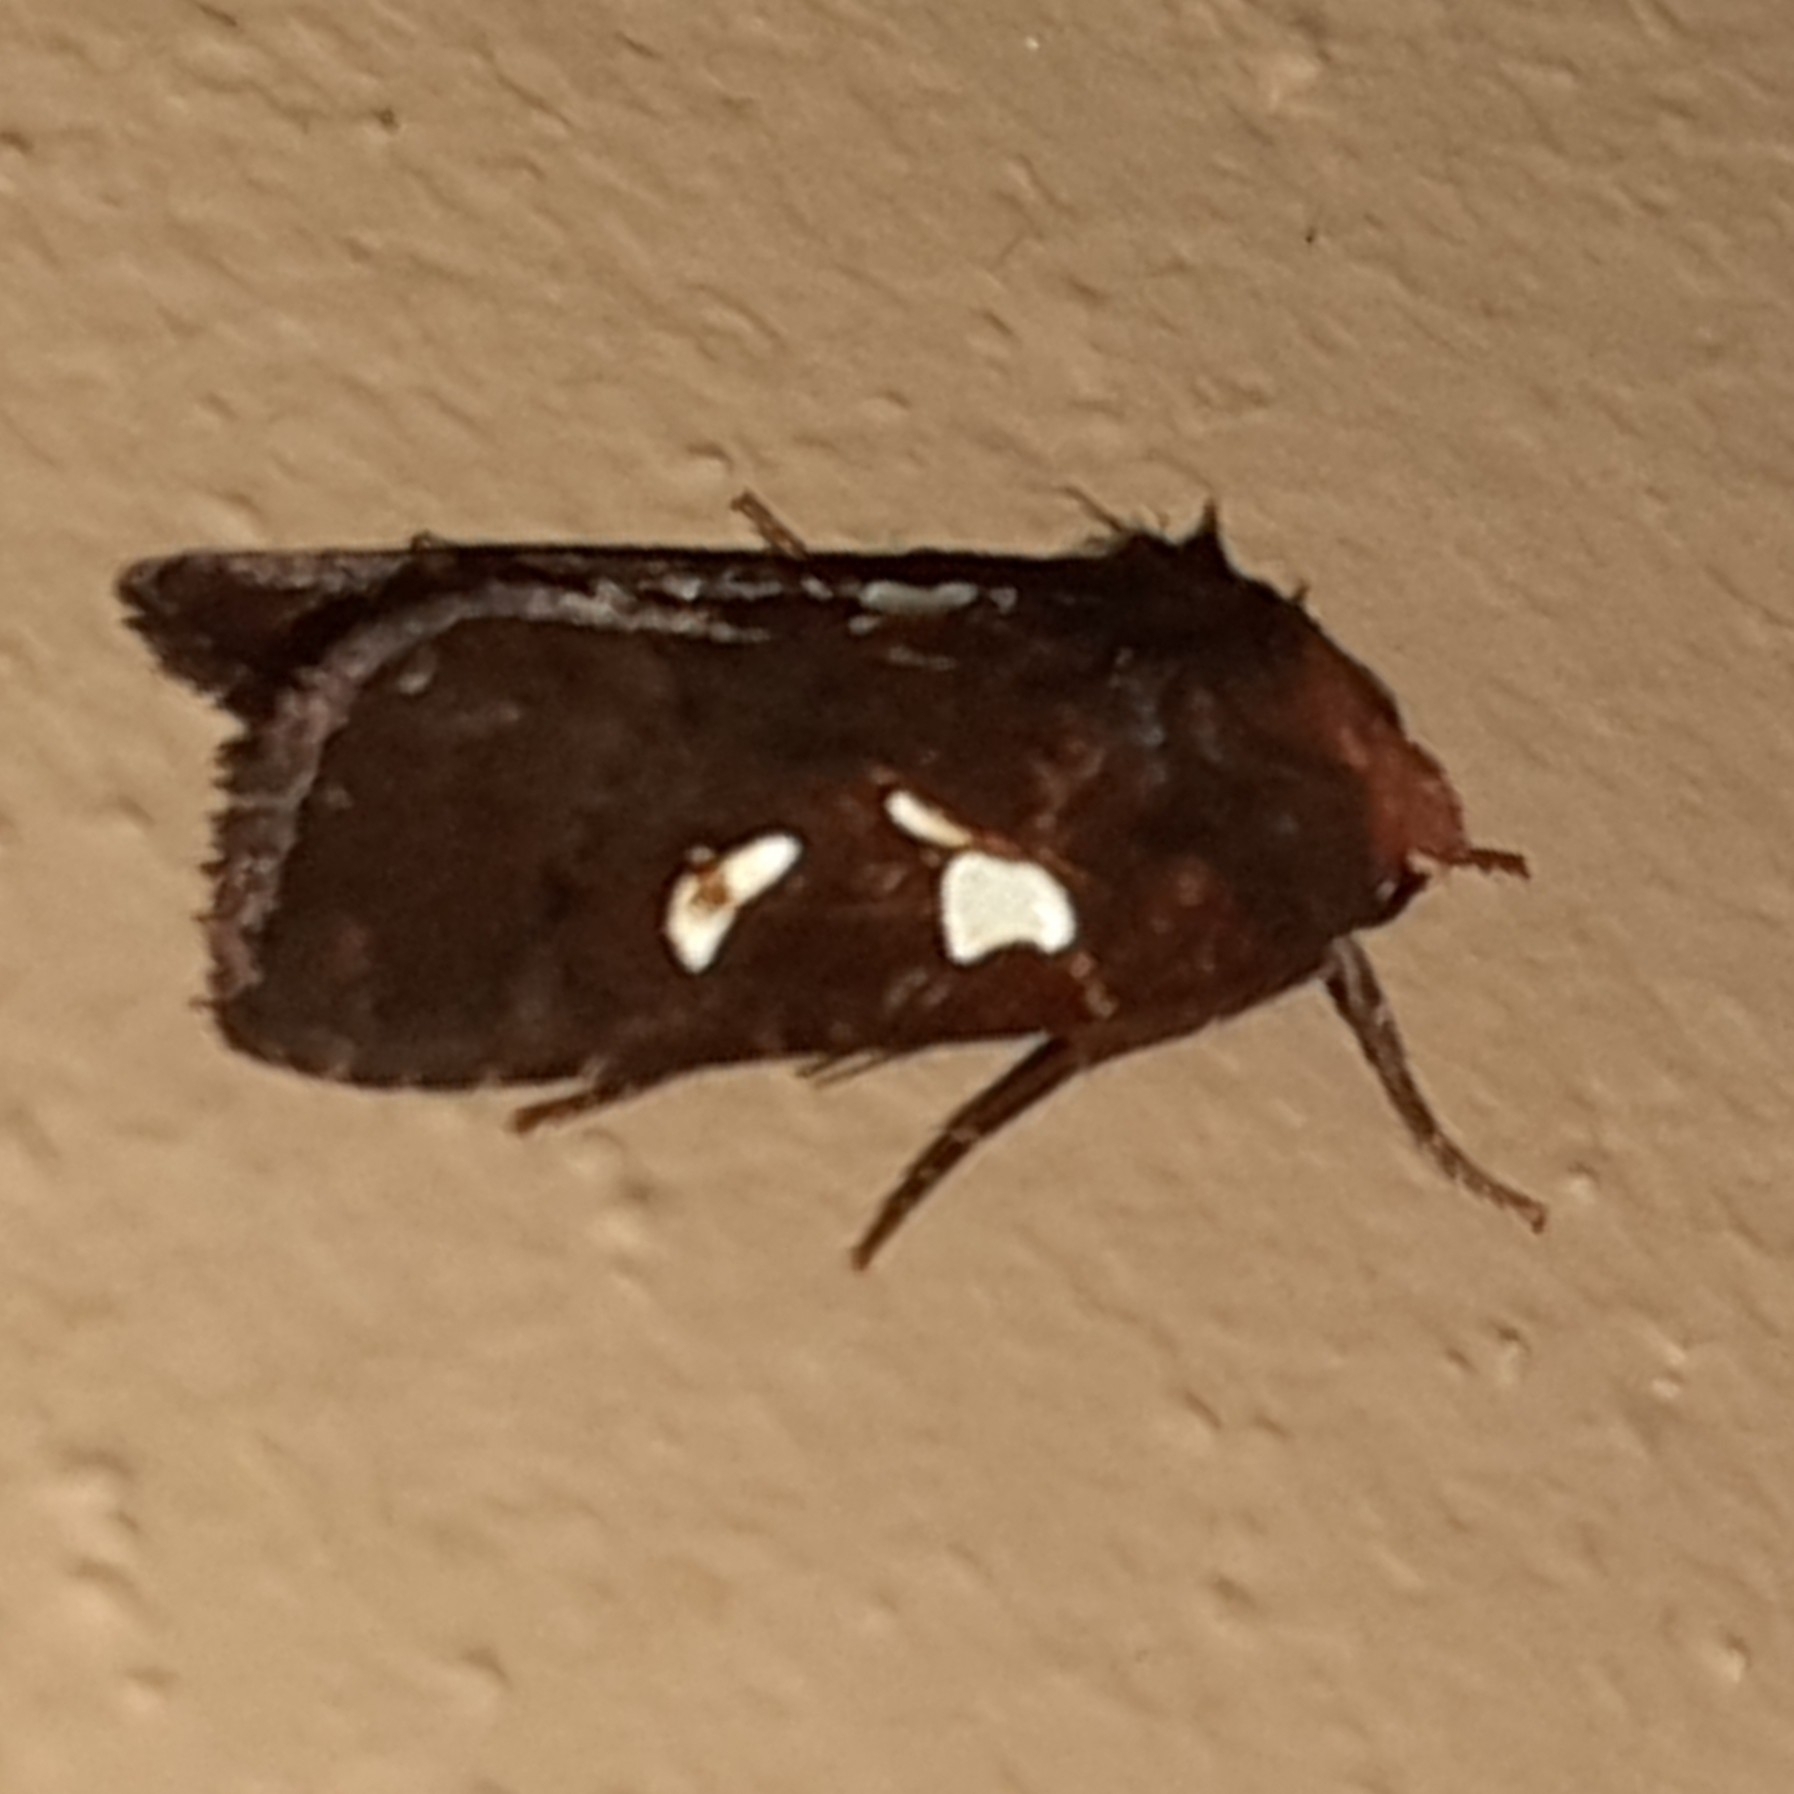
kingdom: Animalia
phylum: Arthropoda
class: Insecta
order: Lepidoptera
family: Noctuidae
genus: Calymniodes
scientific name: Calymniodes pyrostrota
